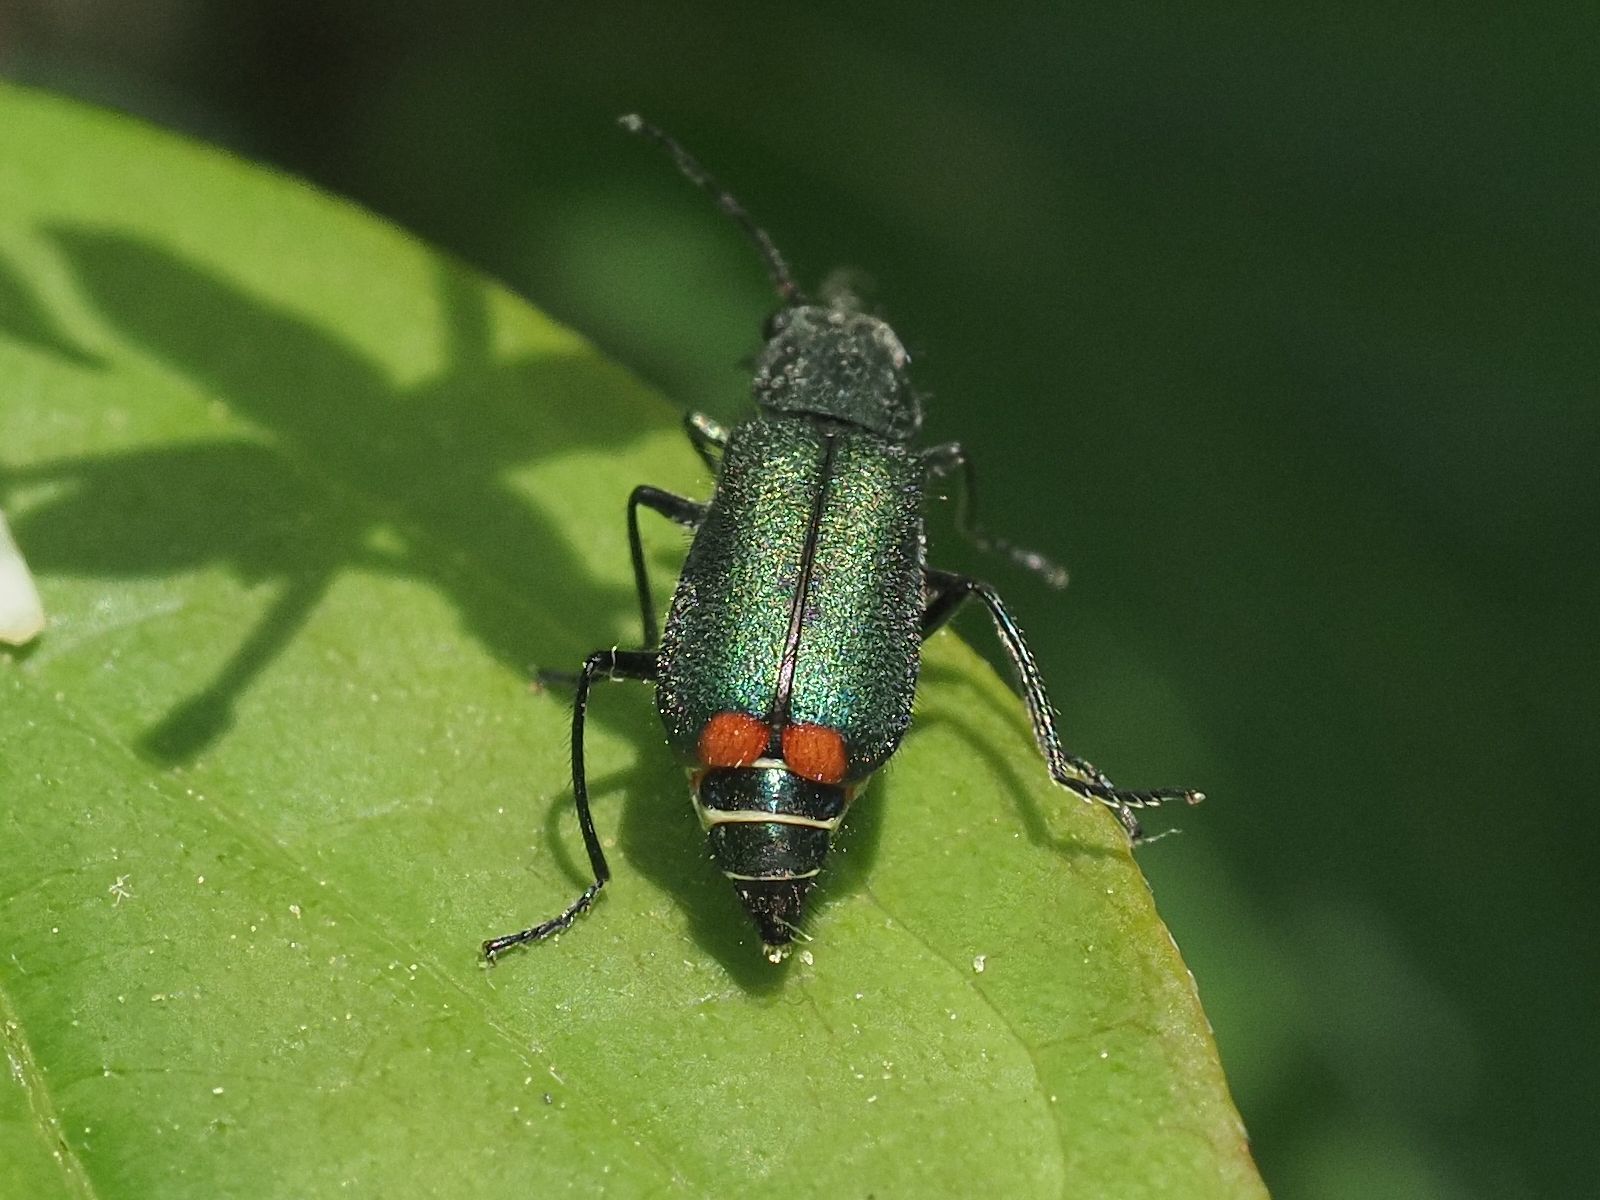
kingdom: Animalia
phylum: Arthropoda
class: Insecta
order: Coleoptera
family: Melyridae
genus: Malachius
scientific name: Malachius bipustulatus
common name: Malachite beetle
